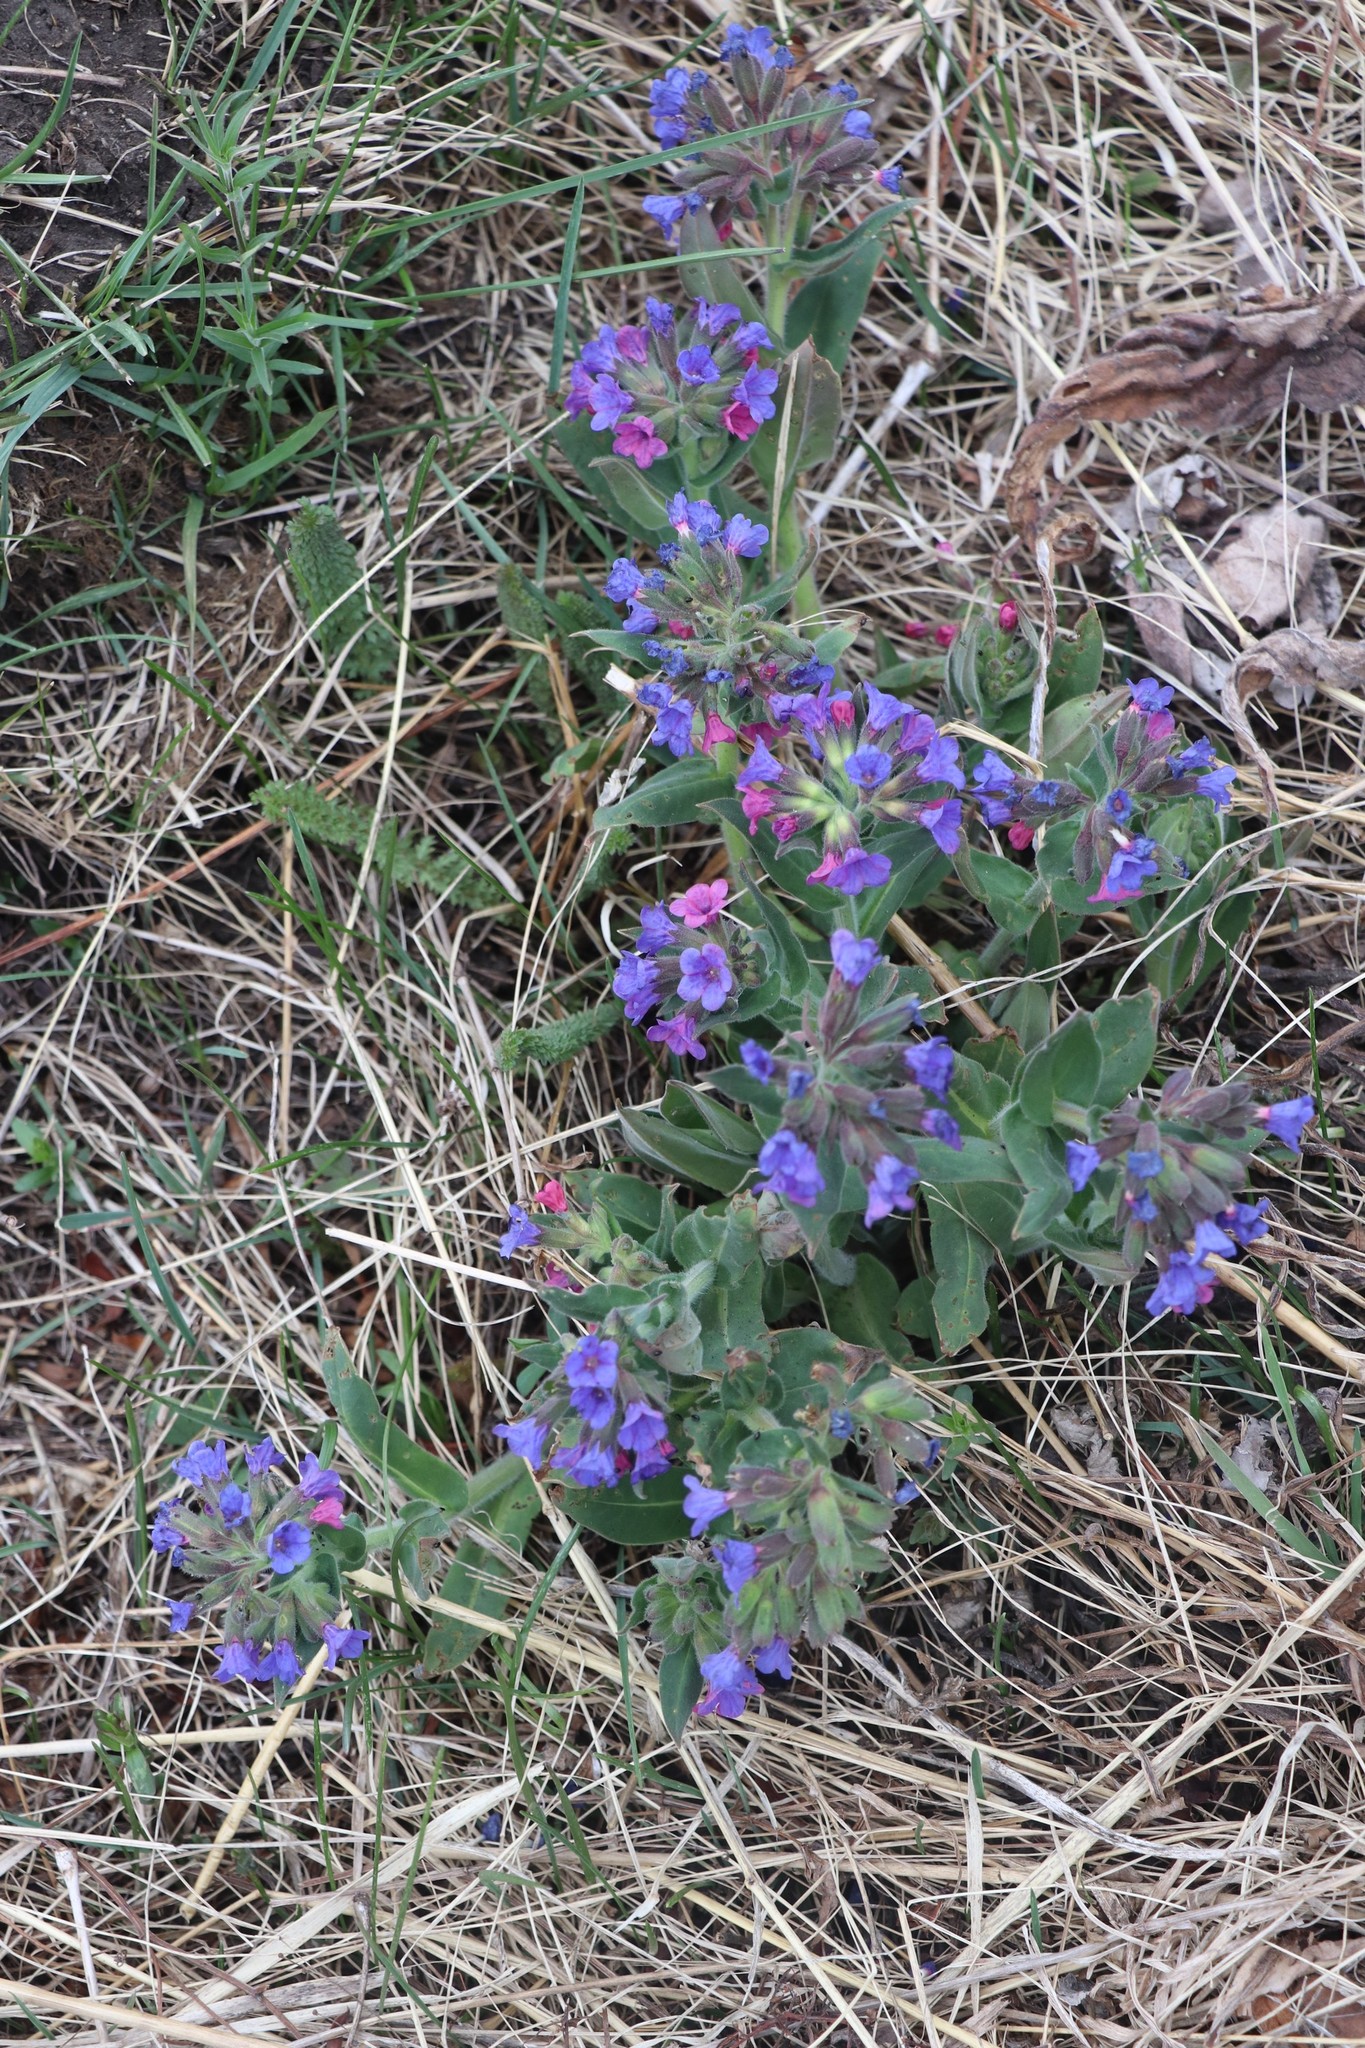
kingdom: Plantae
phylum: Tracheophyta
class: Magnoliopsida
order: Boraginales
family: Boraginaceae
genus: Pulmonaria
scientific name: Pulmonaria mollis
